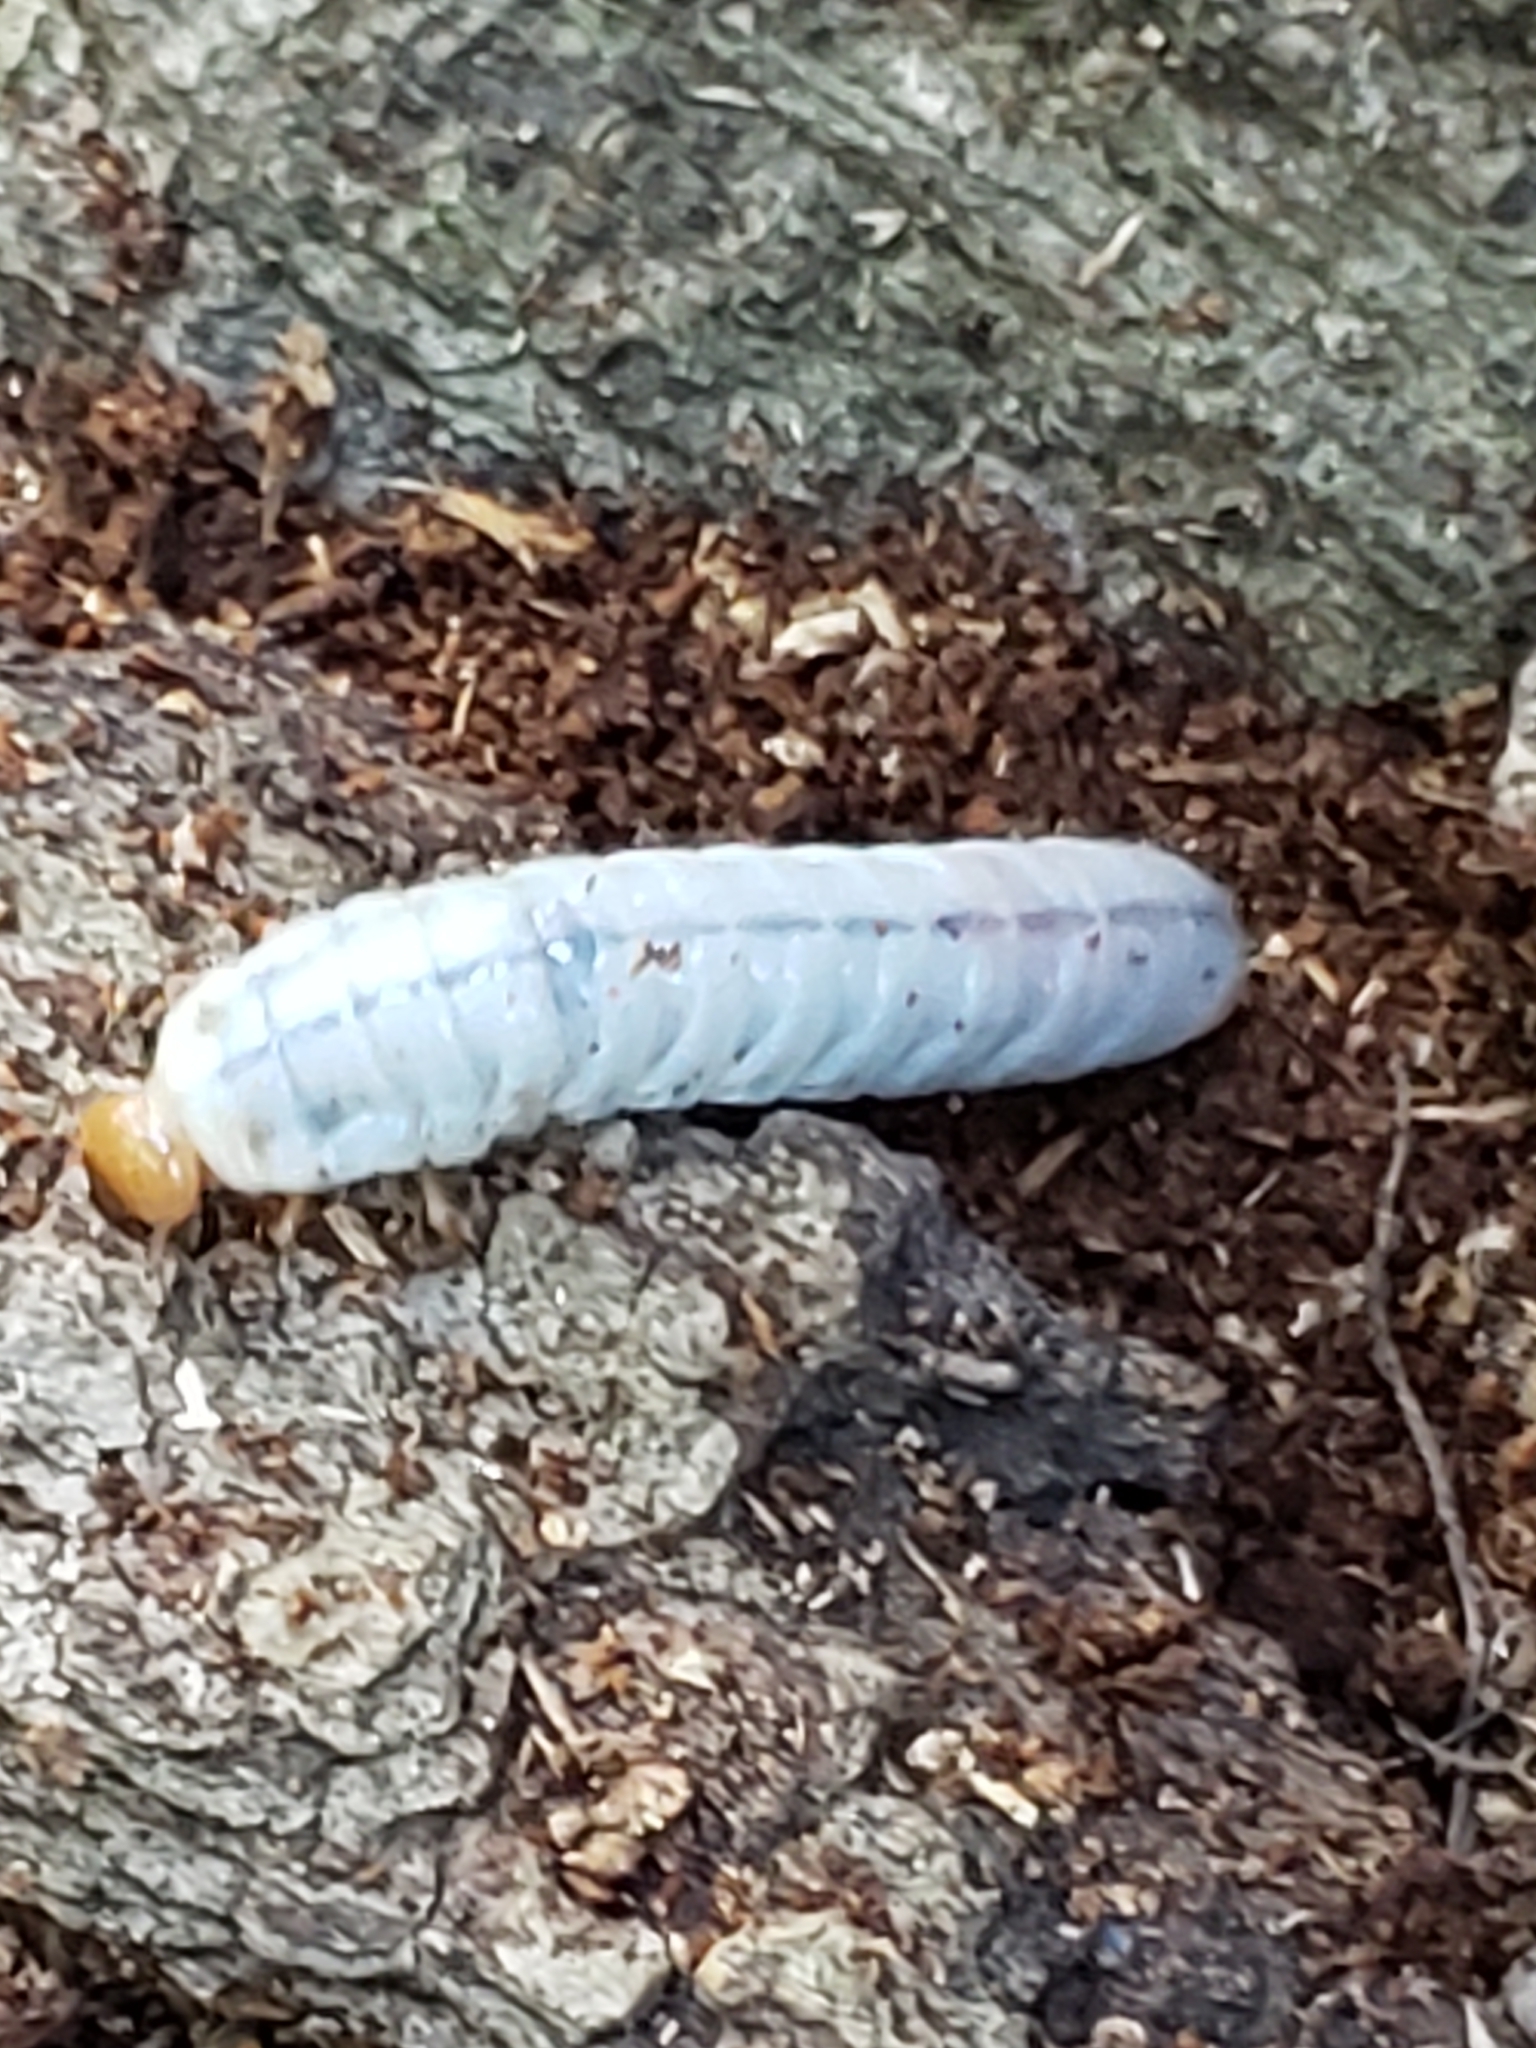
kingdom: Animalia
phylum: Arthropoda
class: Insecta
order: Coleoptera
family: Passalidae
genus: Odontotaenius
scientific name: Odontotaenius disjunctus
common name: Patent leather beetle
